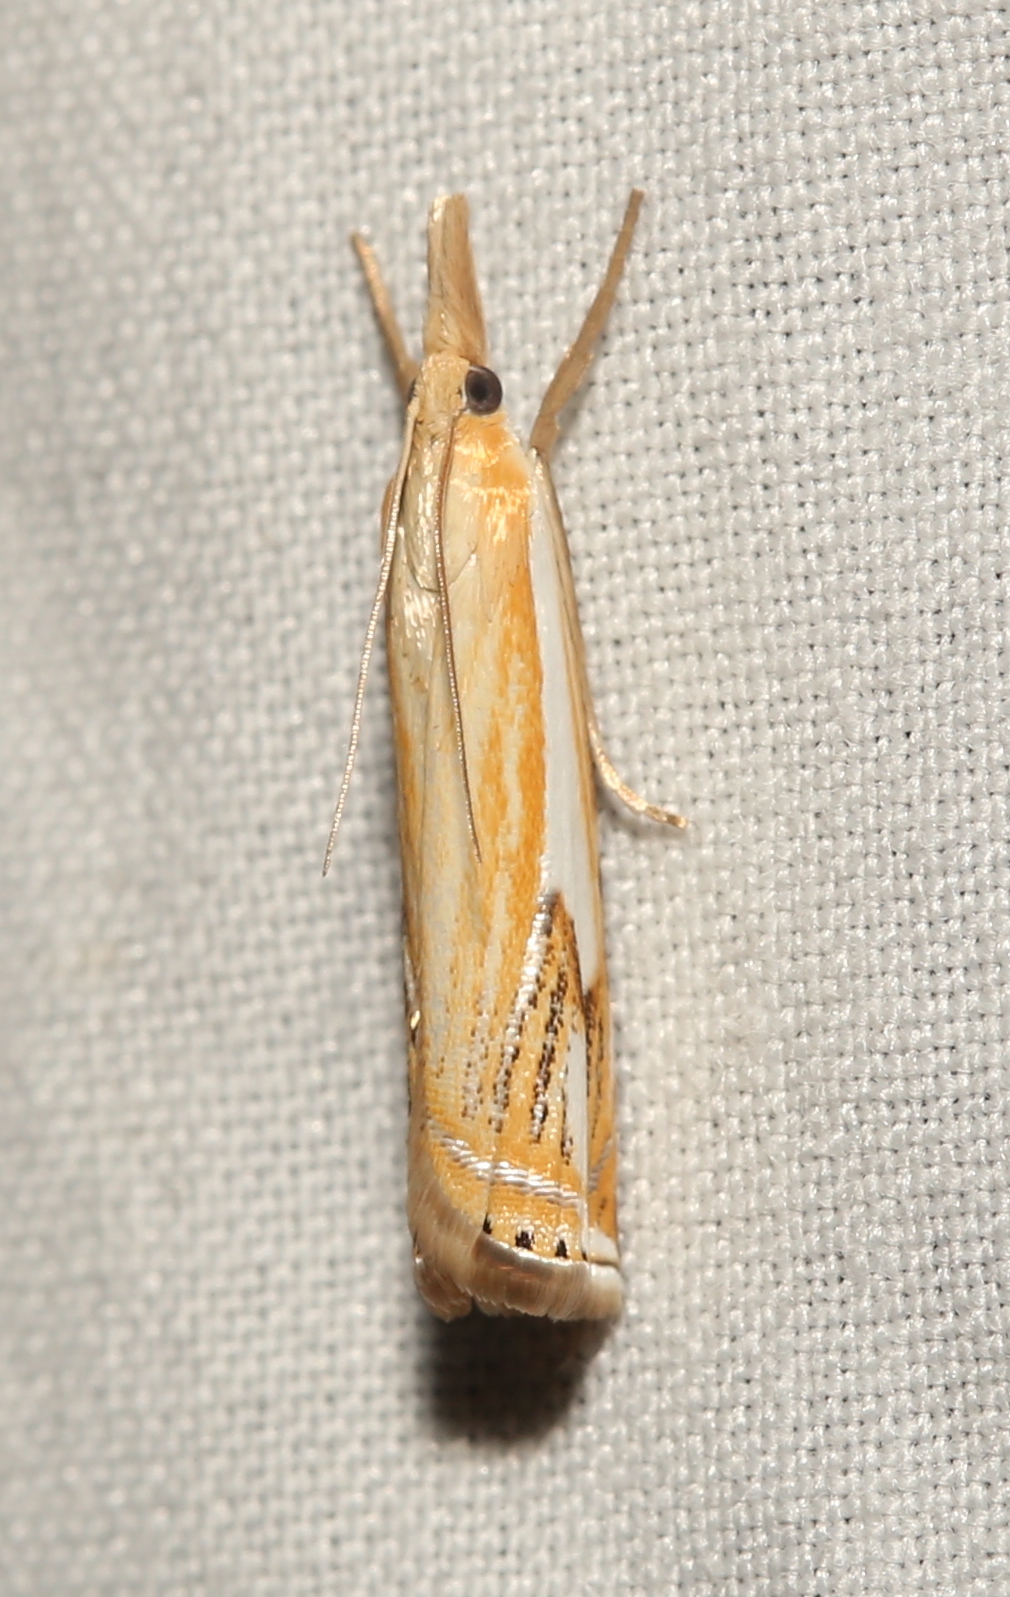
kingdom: Animalia
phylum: Arthropoda
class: Insecta
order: Lepidoptera
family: Crambidae
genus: Crambus
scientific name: Crambus agitatellus
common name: Double-banded grass-veneer
